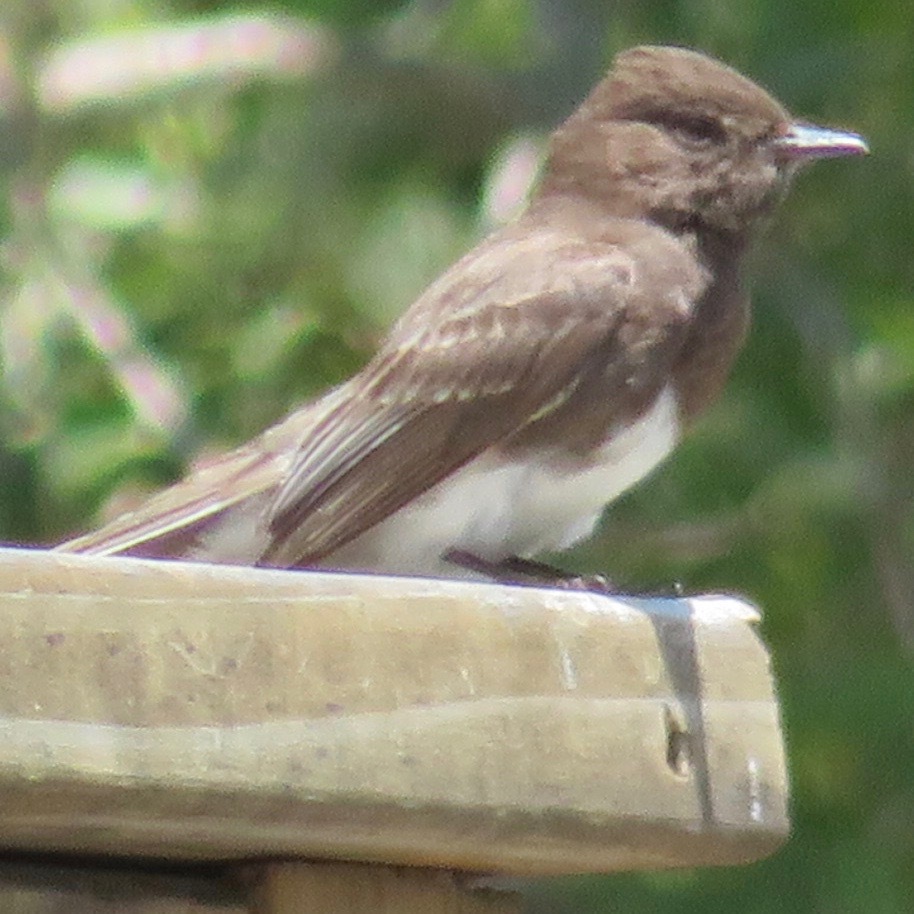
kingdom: Animalia
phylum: Chordata
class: Aves
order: Passeriformes
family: Tyrannidae
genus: Sayornis
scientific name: Sayornis nigricans
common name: Black phoebe
